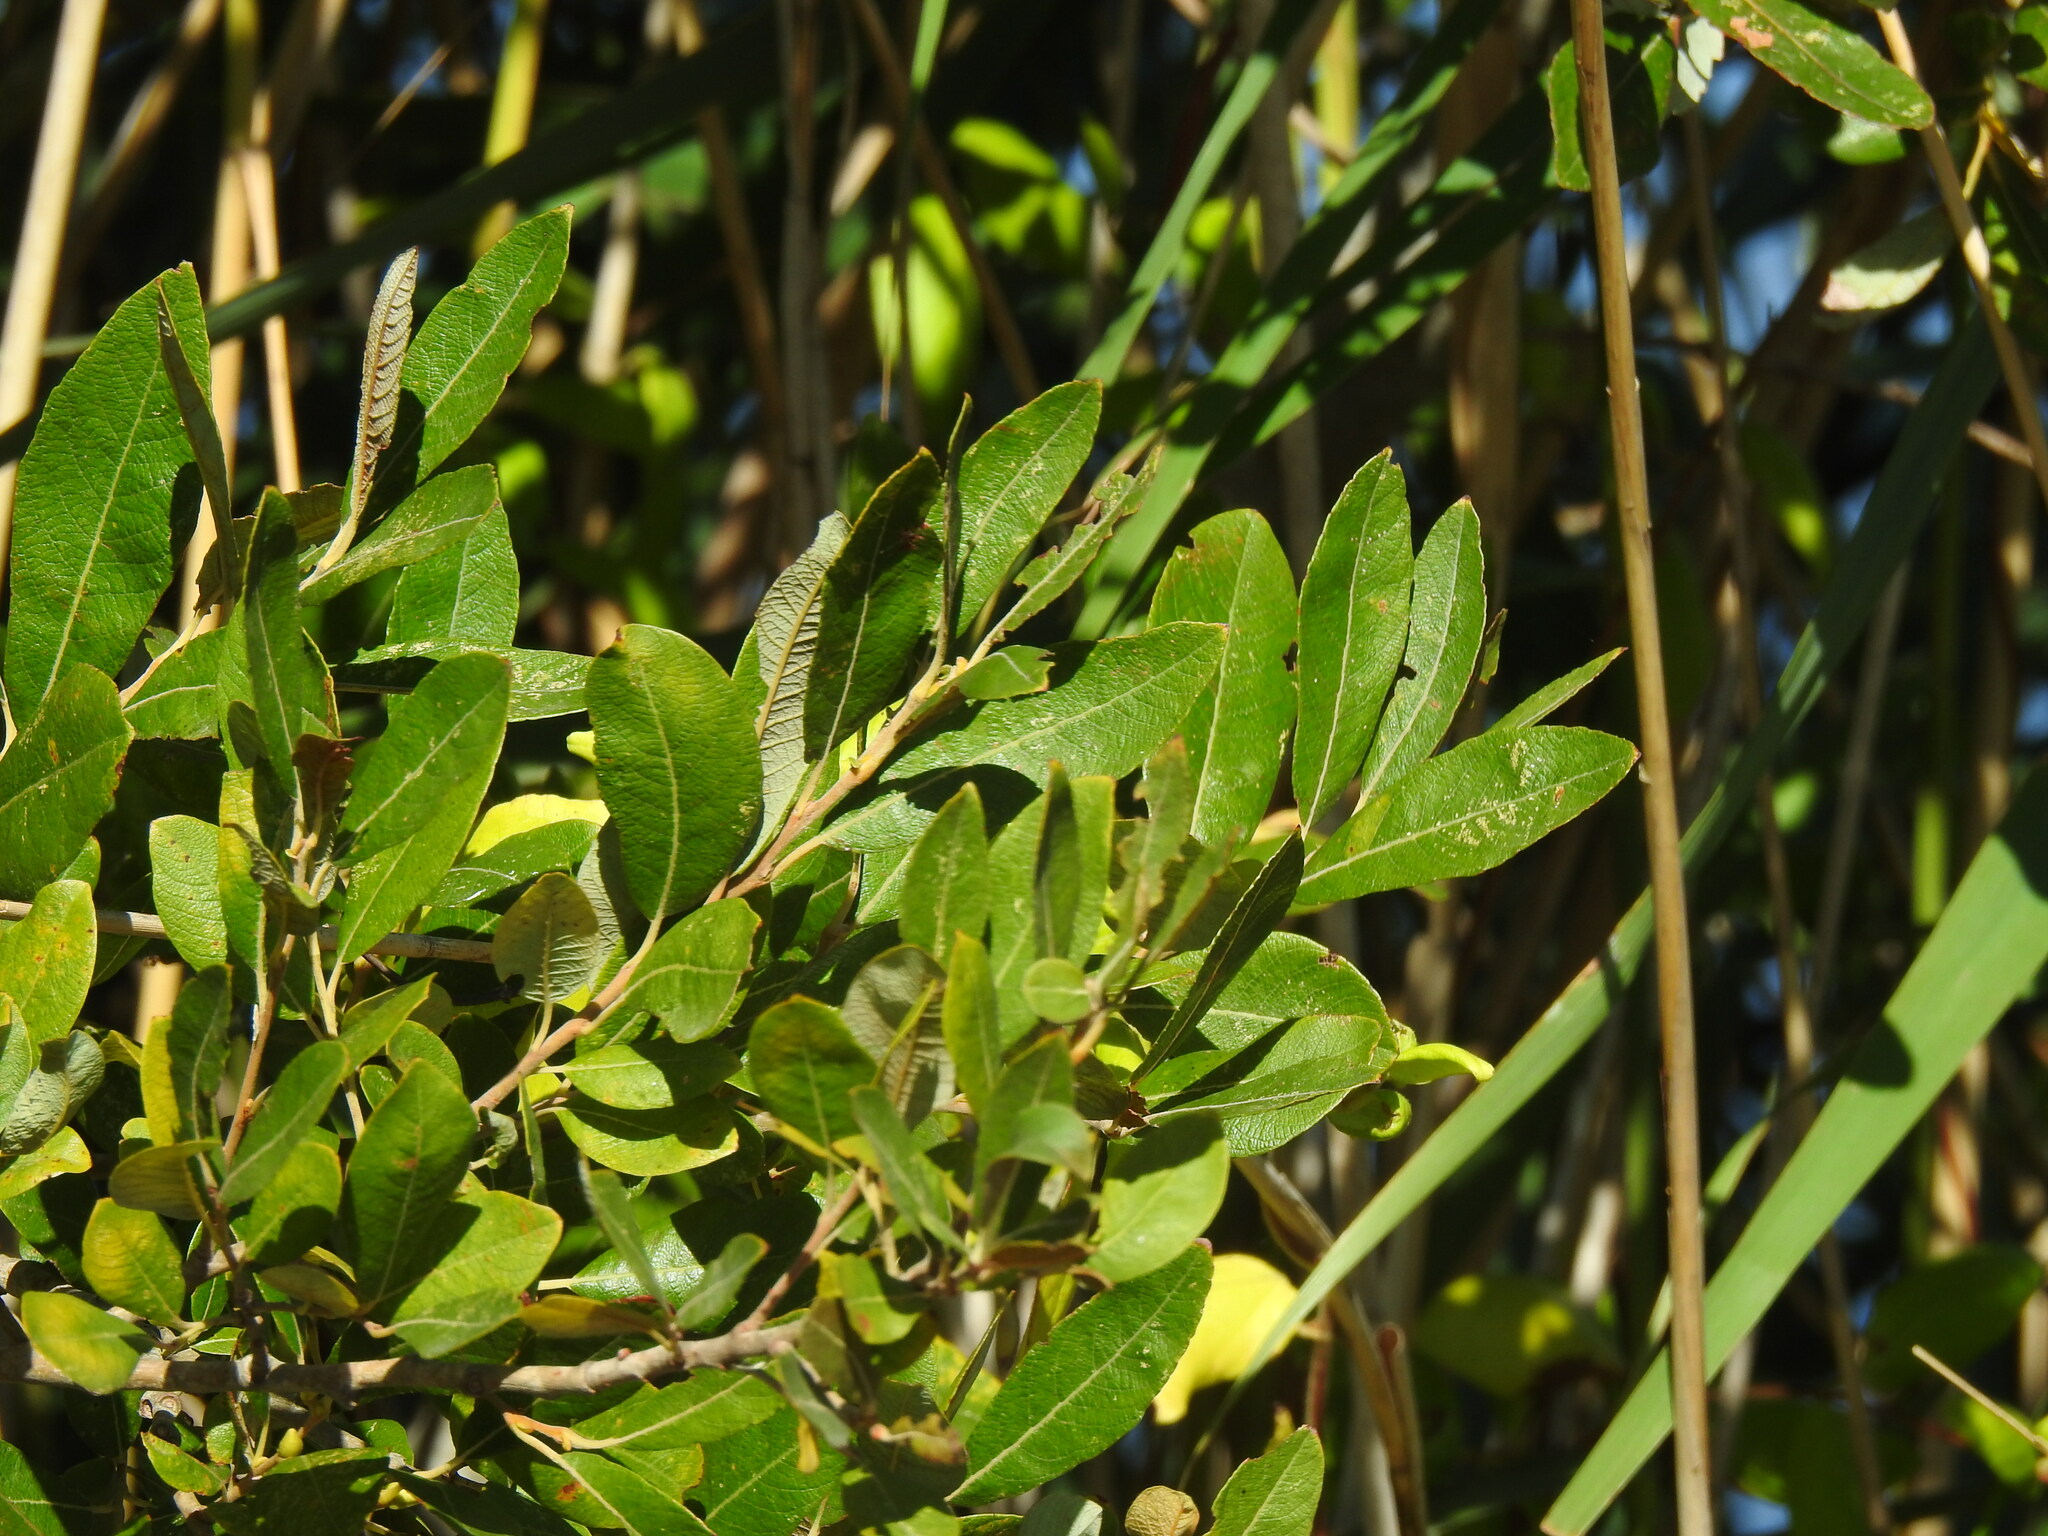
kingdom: Plantae
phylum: Tracheophyta
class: Magnoliopsida
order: Malpighiales
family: Salicaceae
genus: Salix
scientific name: Salix atrocinerea
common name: Rusty willow
